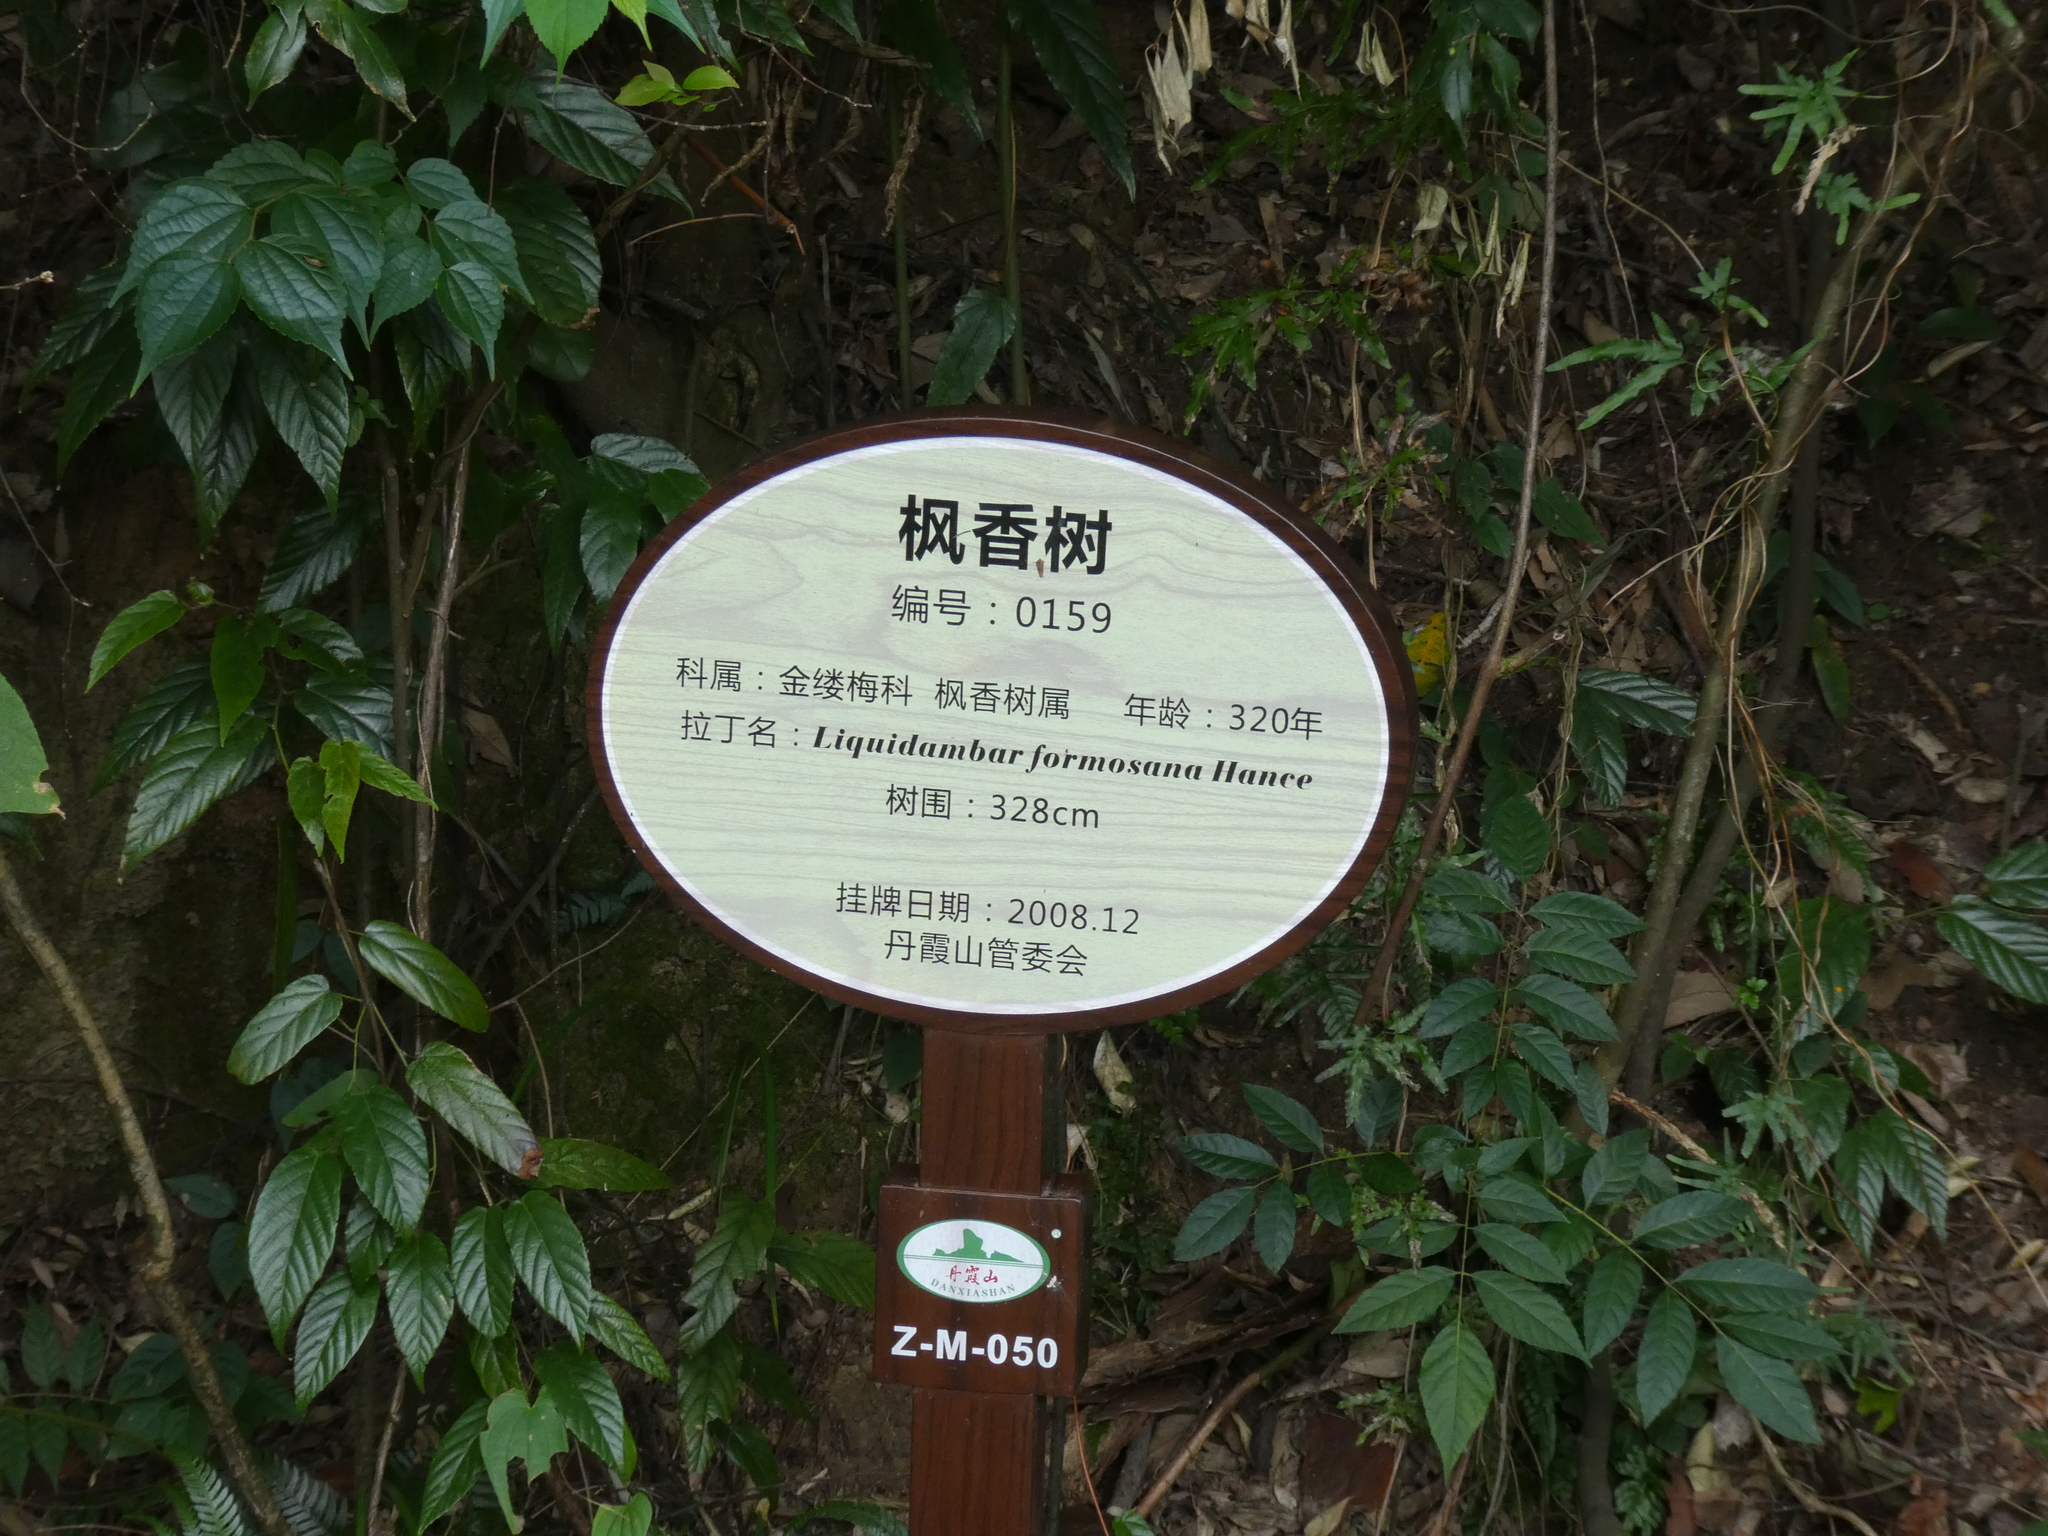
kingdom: Plantae
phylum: Tracheophyta
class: Magnoliopsida
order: Saxifragales
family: Altingiaceae
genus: Liquidambar
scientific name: Liquidambar formosana
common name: Chinese sweet gum
